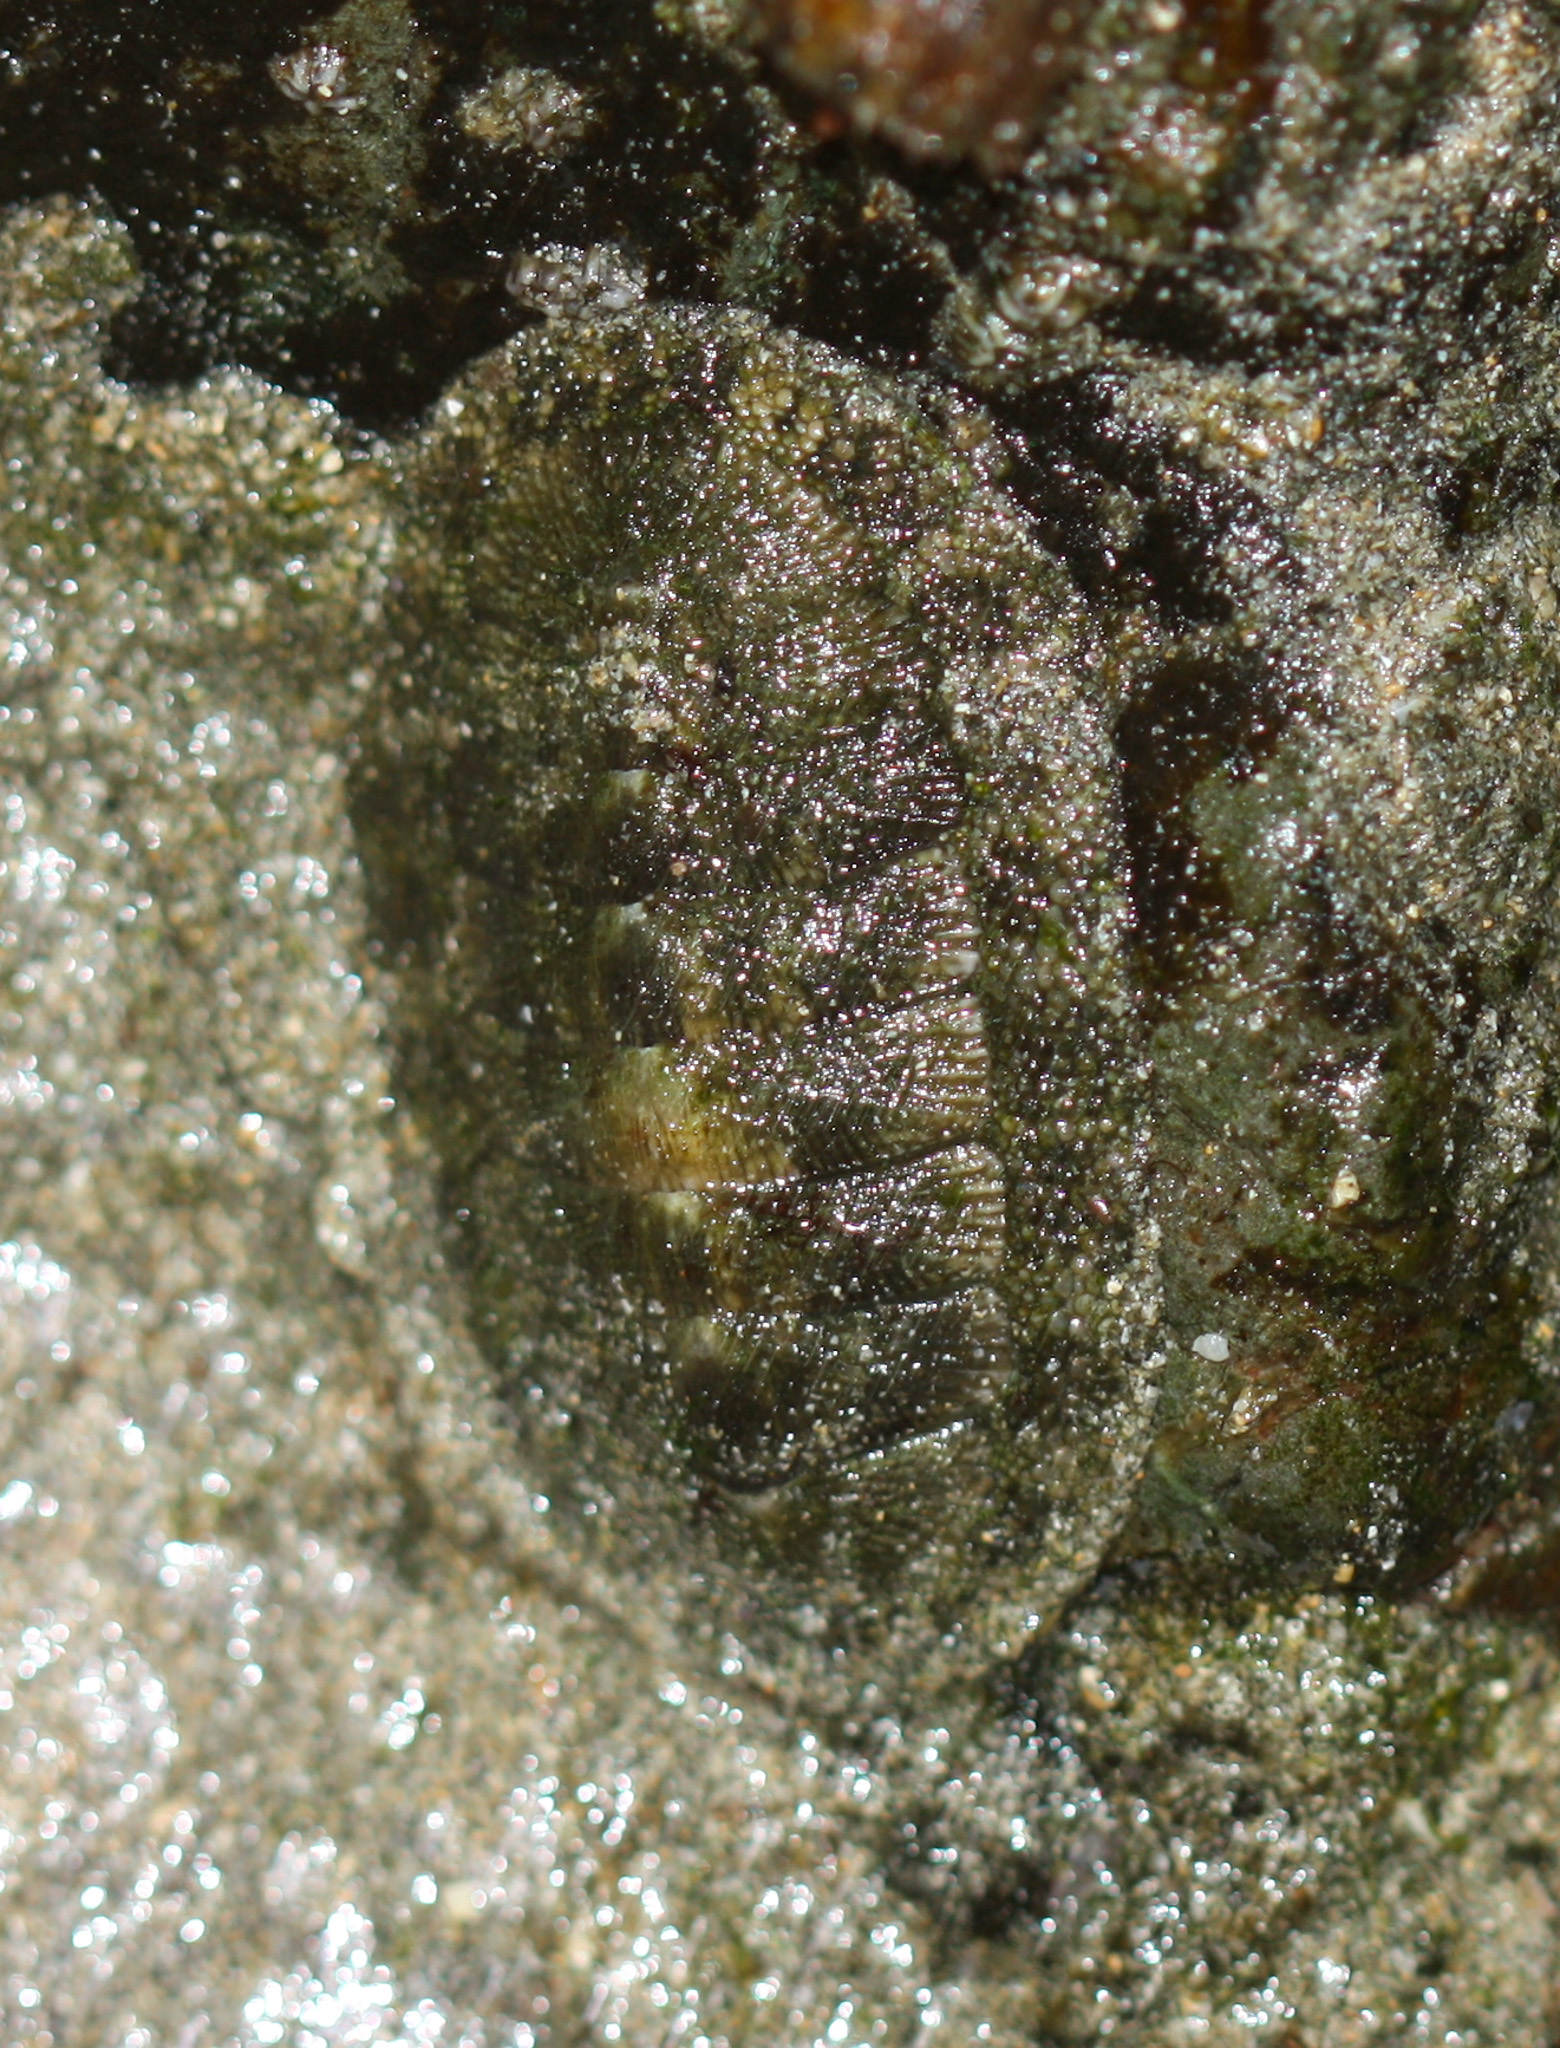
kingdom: Animalia
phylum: Mollusca
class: Polyplacophora
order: Chitonida
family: Chitonidae
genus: Chiton
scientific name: Chiton stokesii
